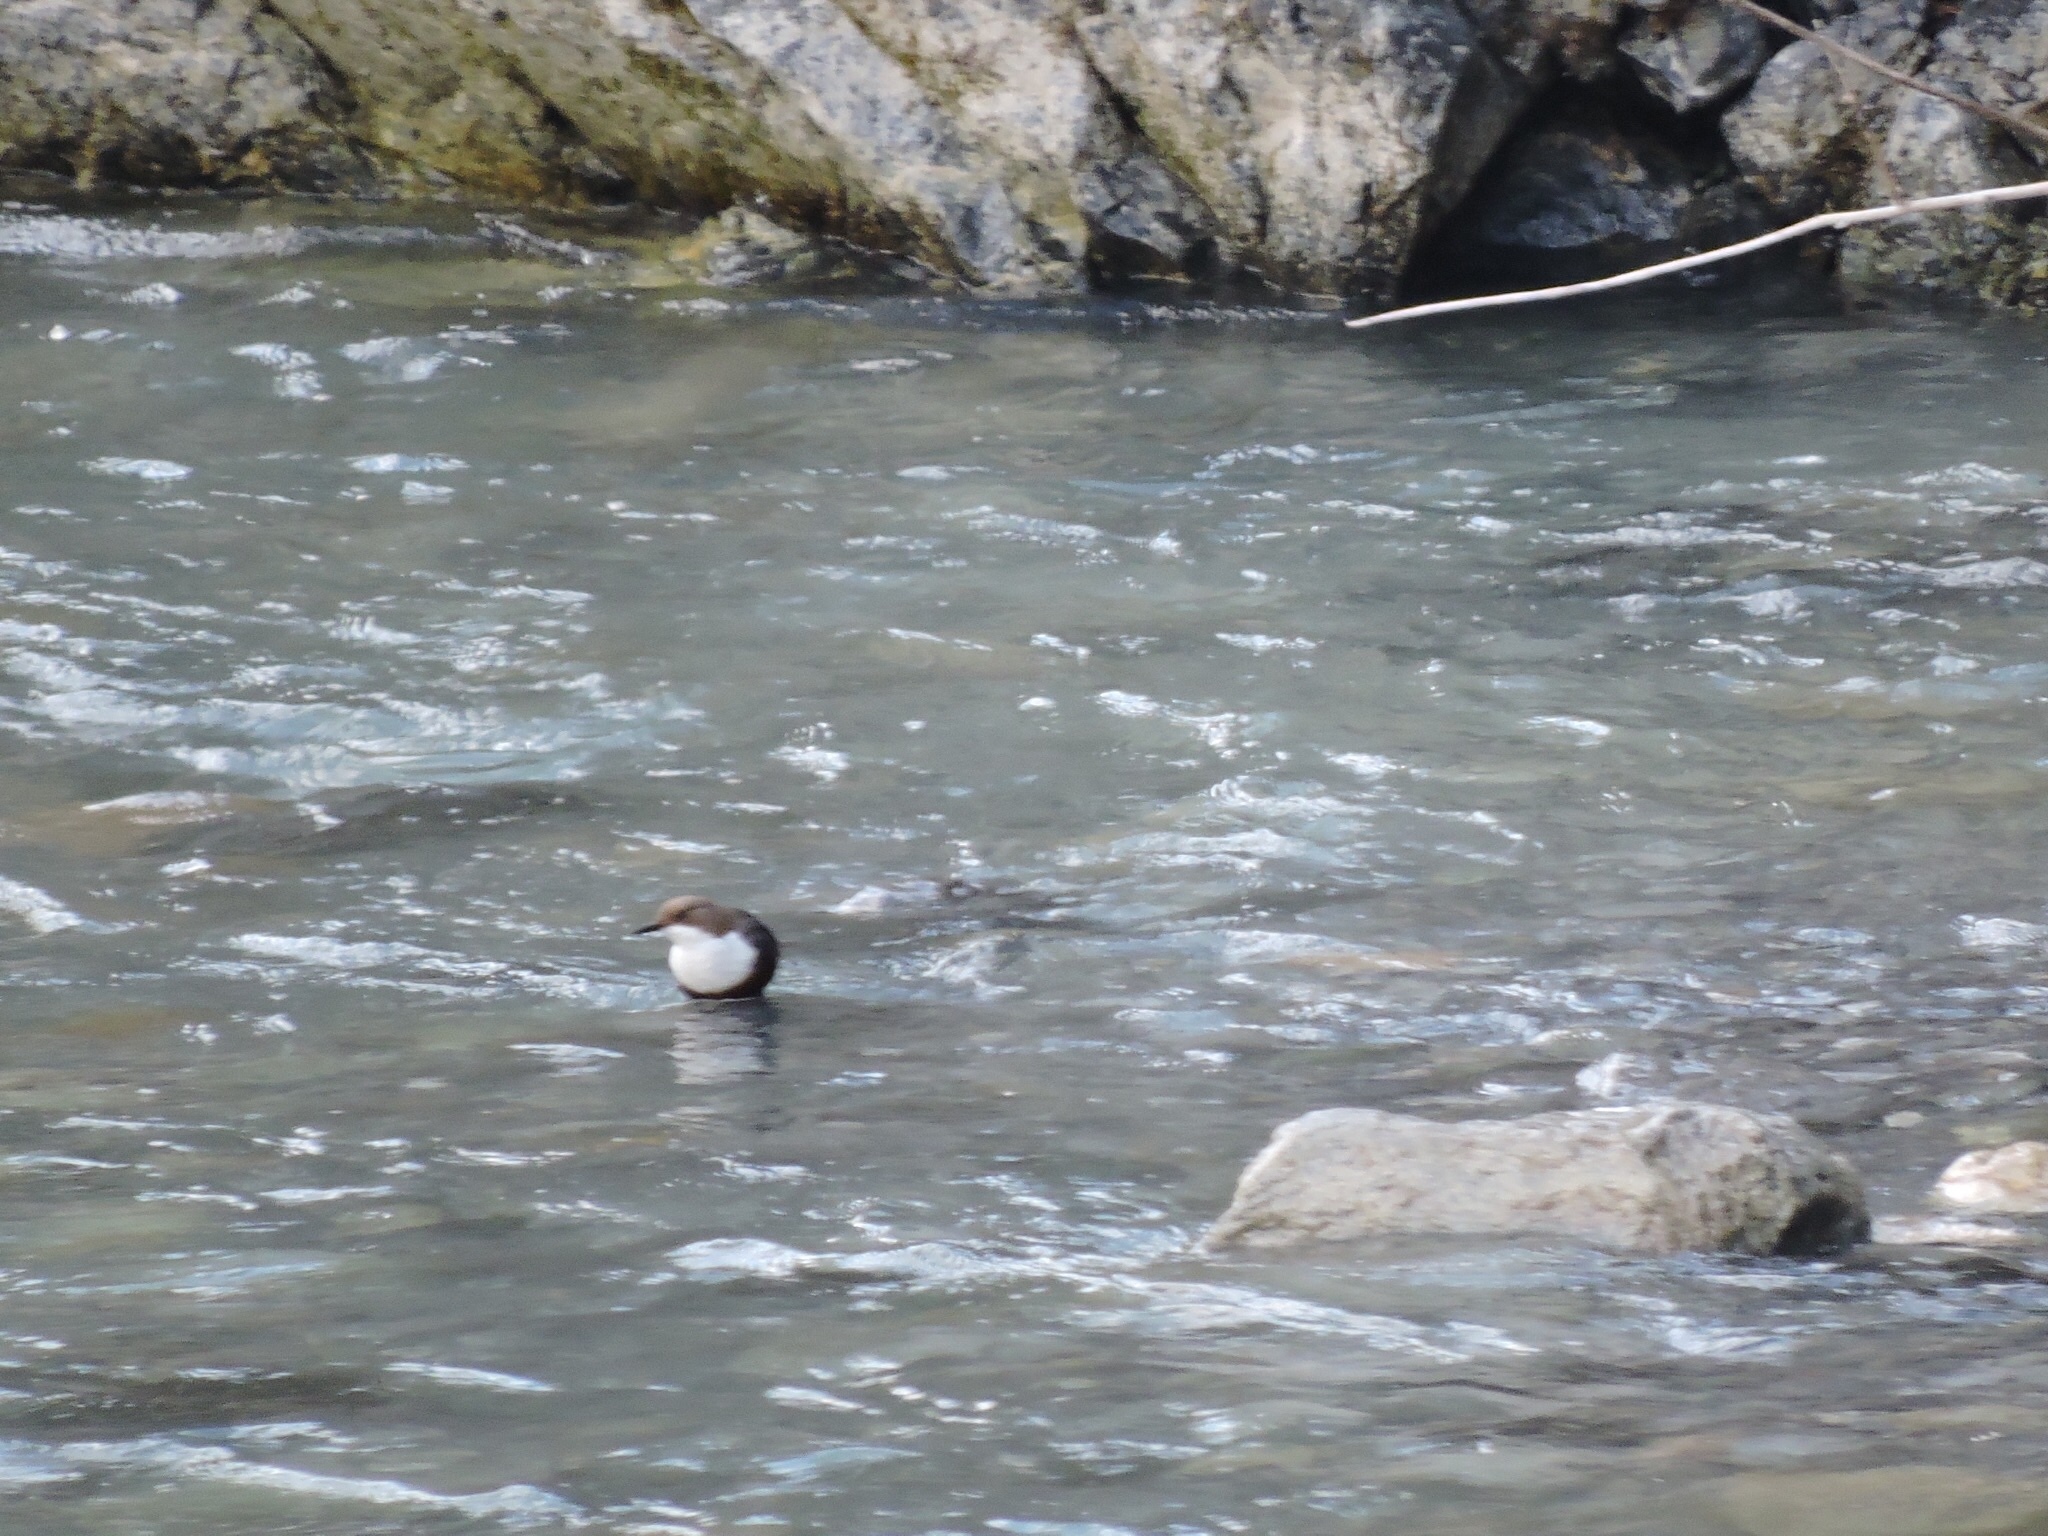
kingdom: Animalia
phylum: Chordata
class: Aves
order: Passeriformes
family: Cinclidae
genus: Cinclus
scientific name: Cinclus cinclus
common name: White-throated dipper
